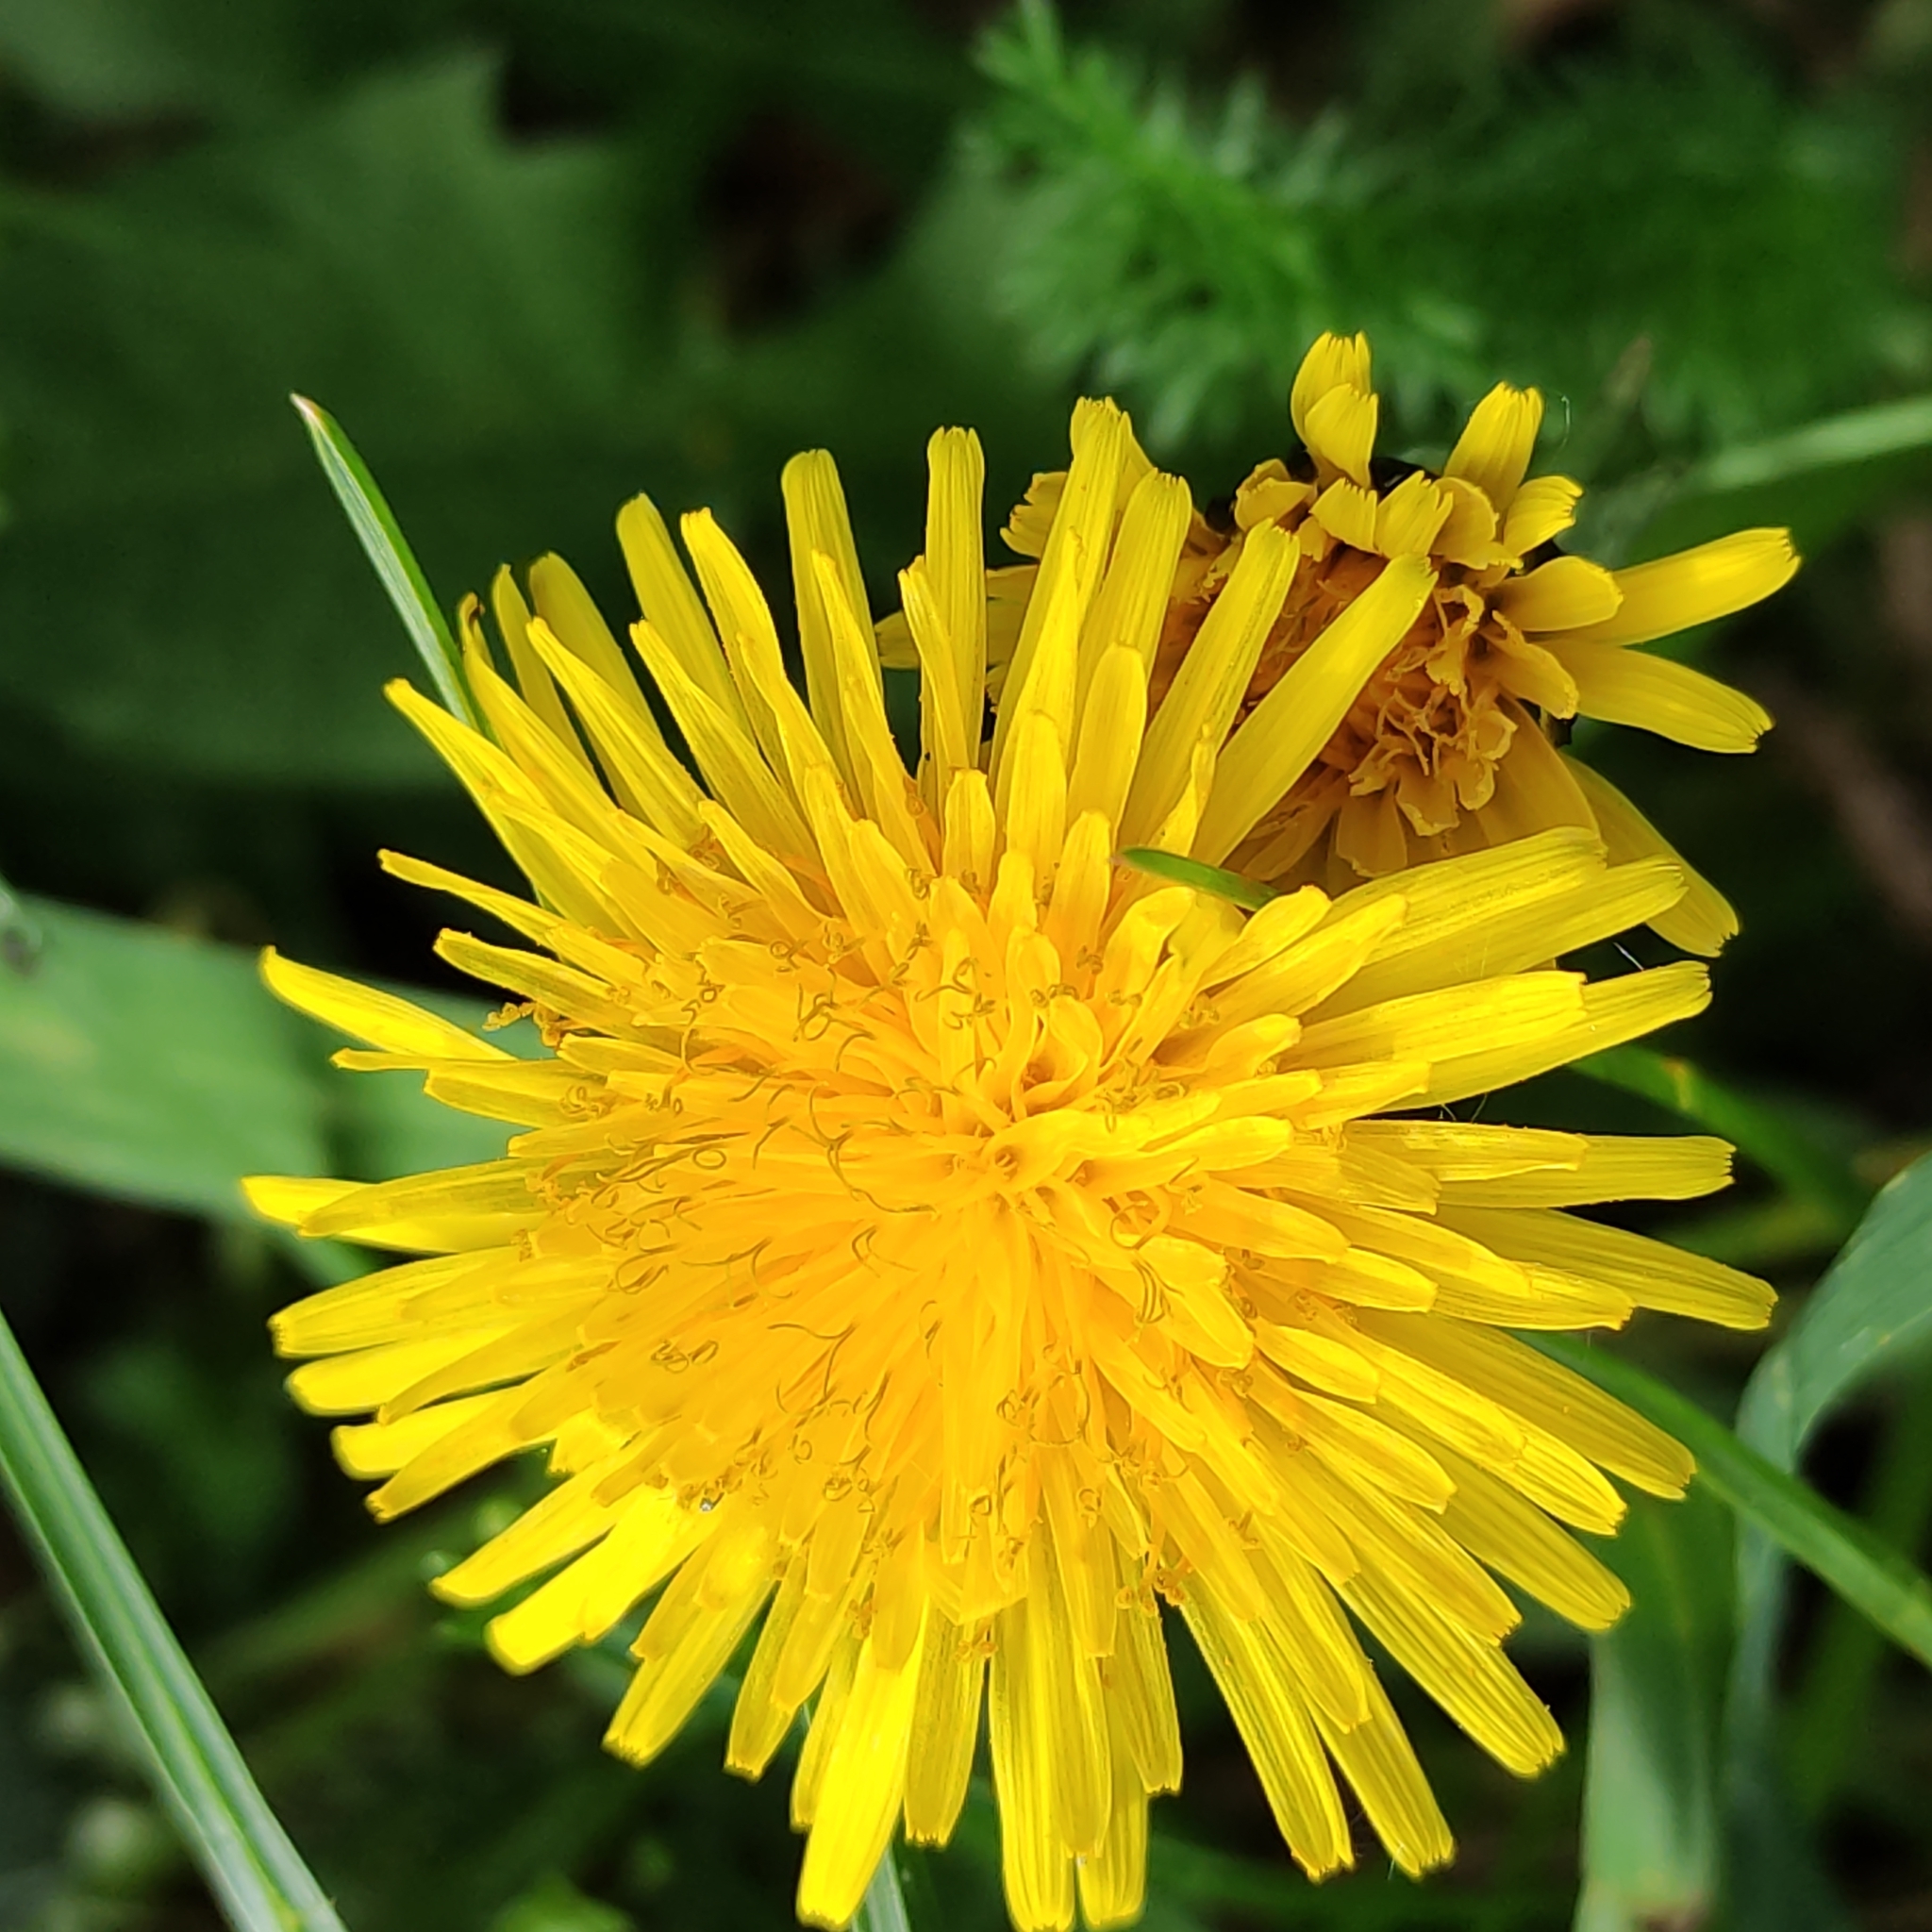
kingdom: Plantae
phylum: Tracheophyta
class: Magnoliopsida
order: Asterales
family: Asteraceae
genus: Taraxacum
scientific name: Taraxacum officinale
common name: Common dandelion
